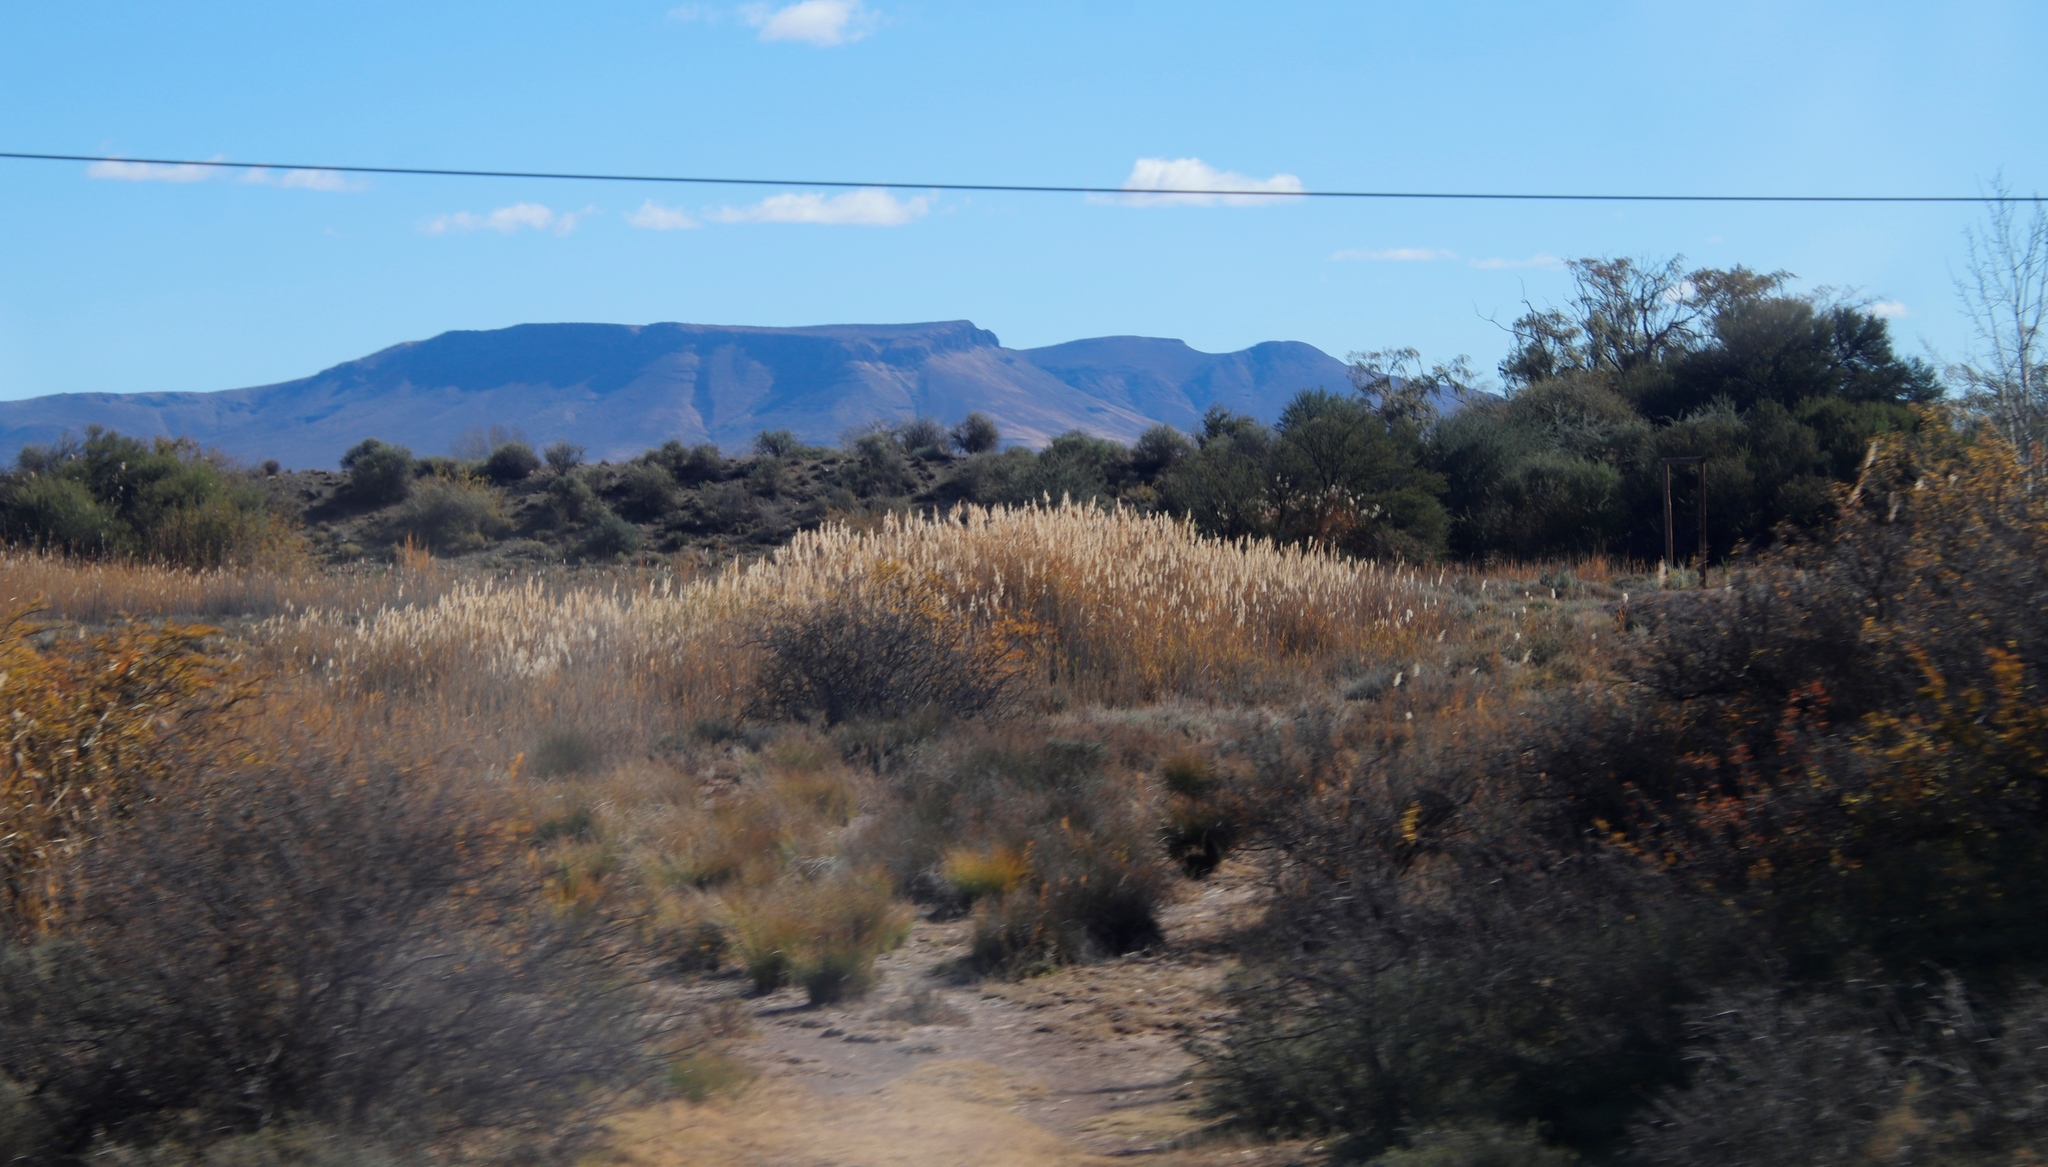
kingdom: Plantae
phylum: Tracheophyta
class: Liliopsida
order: Poales
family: Poaceae
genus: Phragmites
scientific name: Phragmites australis
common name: Common reed
